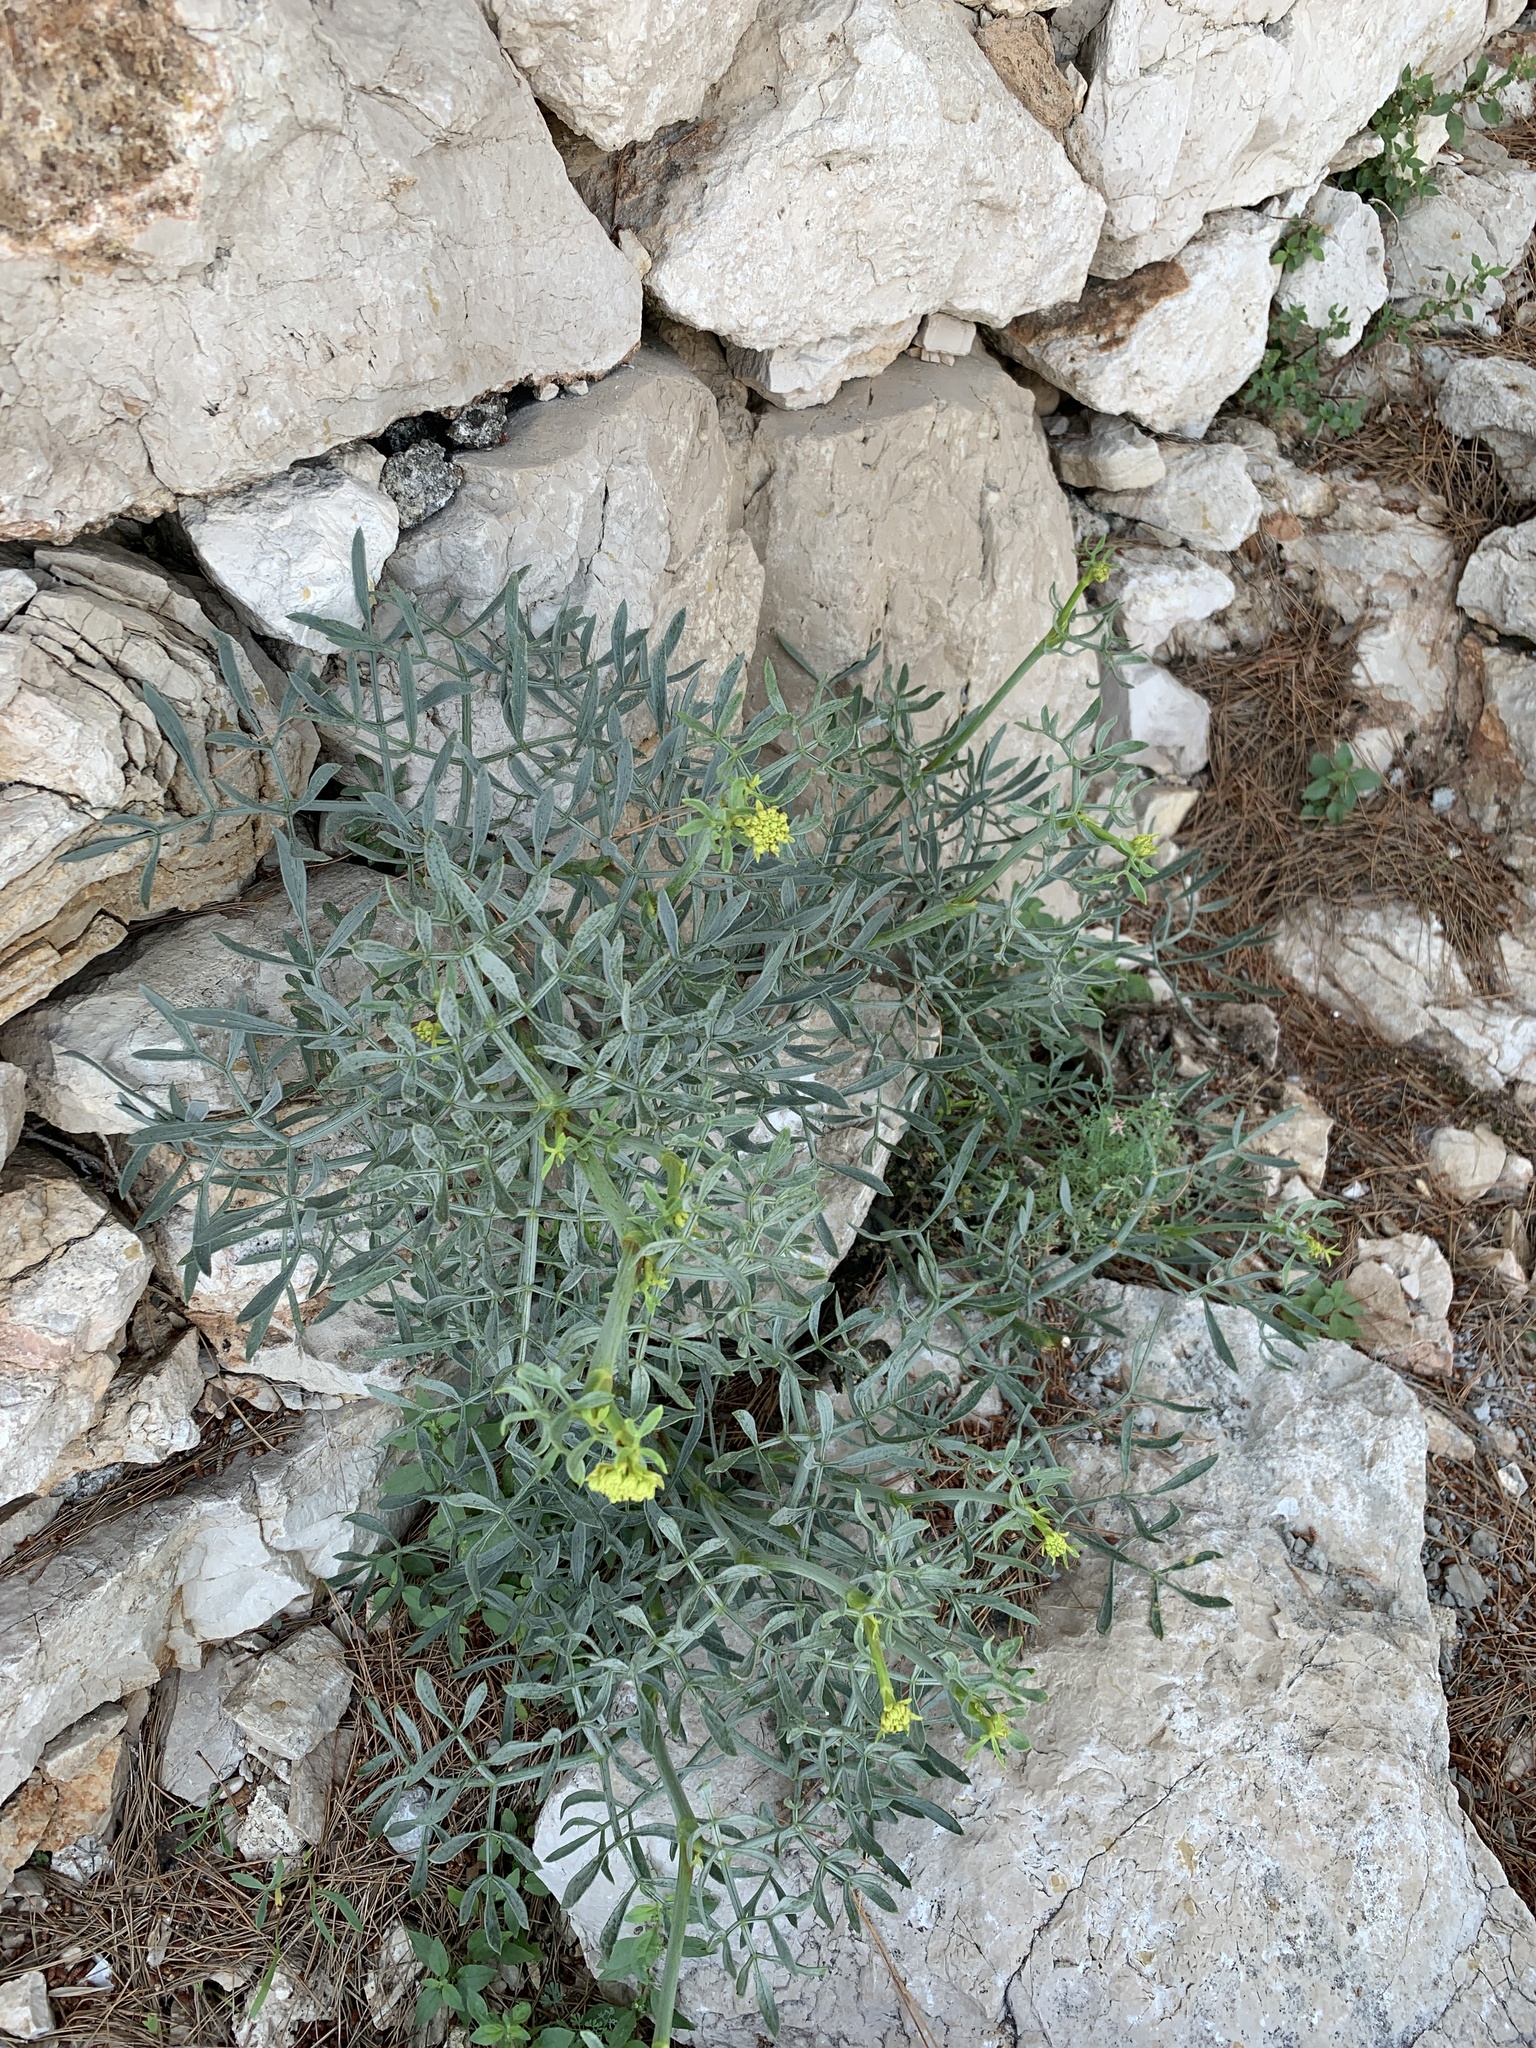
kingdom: Plantae
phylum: Tracheophyta
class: Magnoliopsida
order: Apiales
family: Apiaceae
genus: Crithmum
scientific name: Crithmum maritimum
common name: Rock samphire
